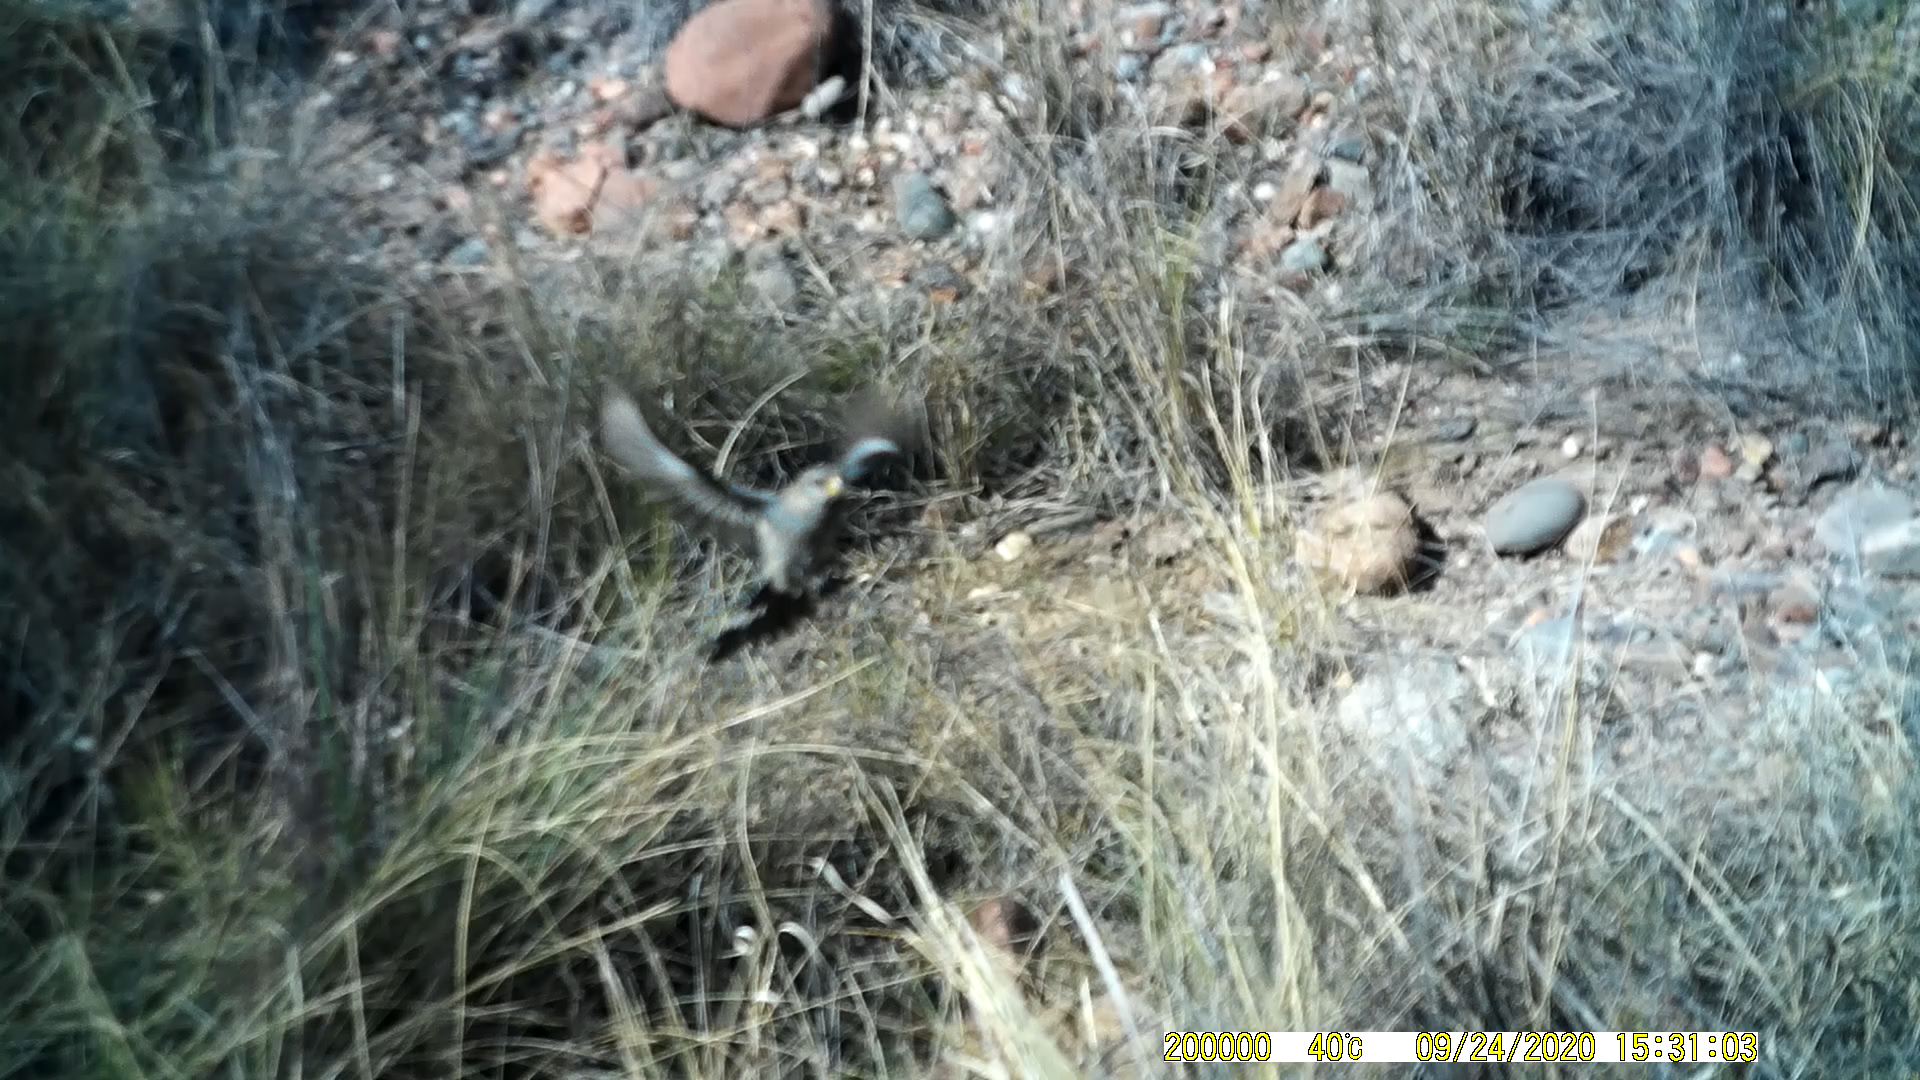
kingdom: Animalia
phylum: Chordata
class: Aves
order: Passeriformes
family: Thraupidae
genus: Catamenia
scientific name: Catamenia analis
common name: Band-tailed seedeater
